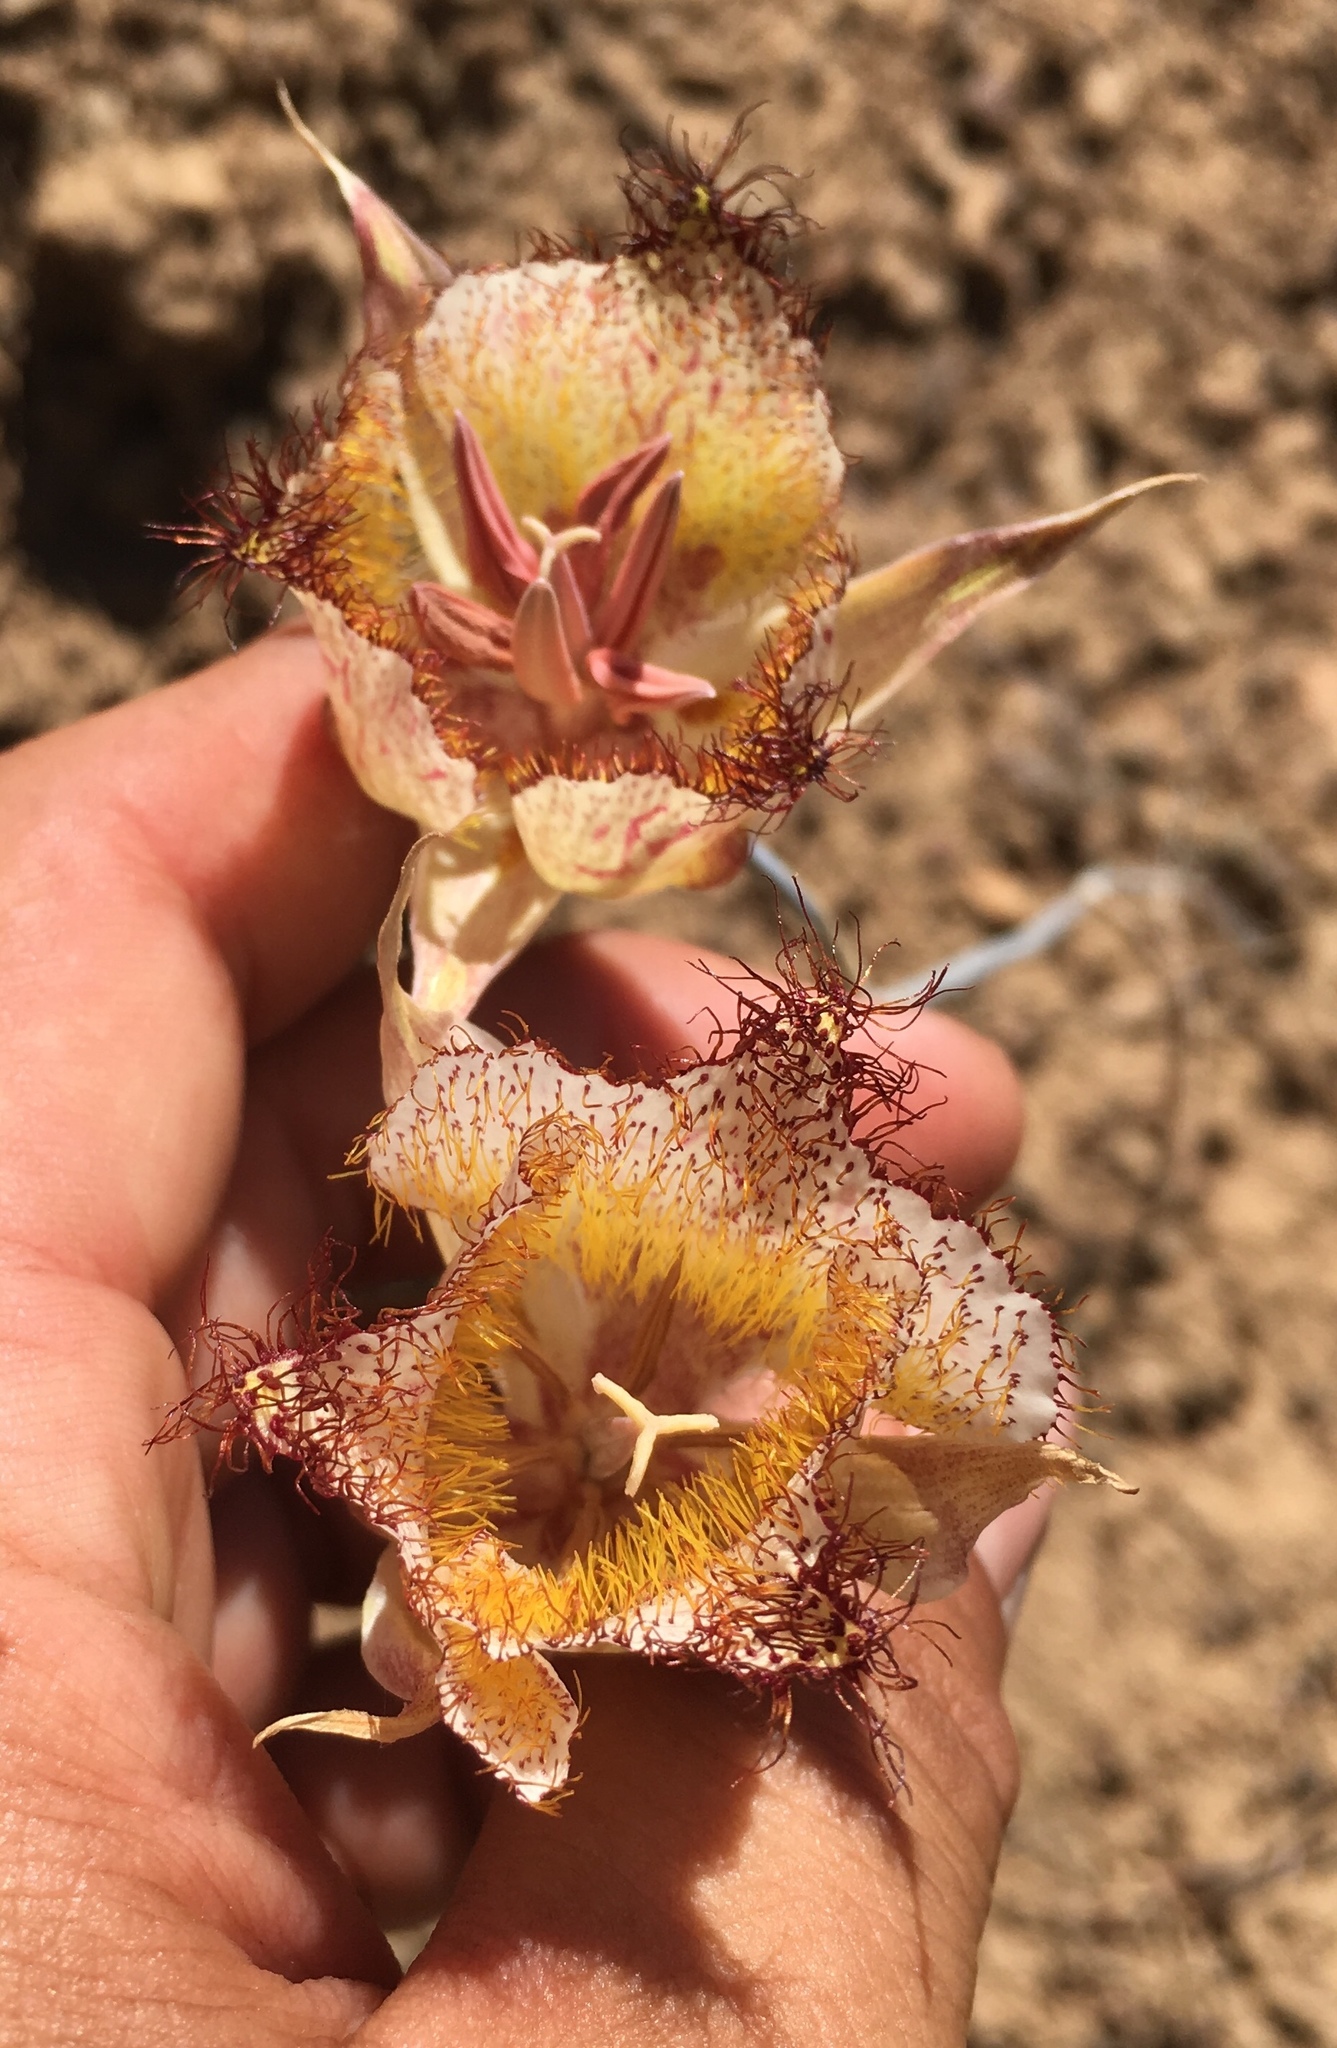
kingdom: Plantae
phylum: Tracheophyta
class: Liliopsida
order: Liliales
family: Liliaceae
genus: Calochortus
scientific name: Calochortus fimbriatus
